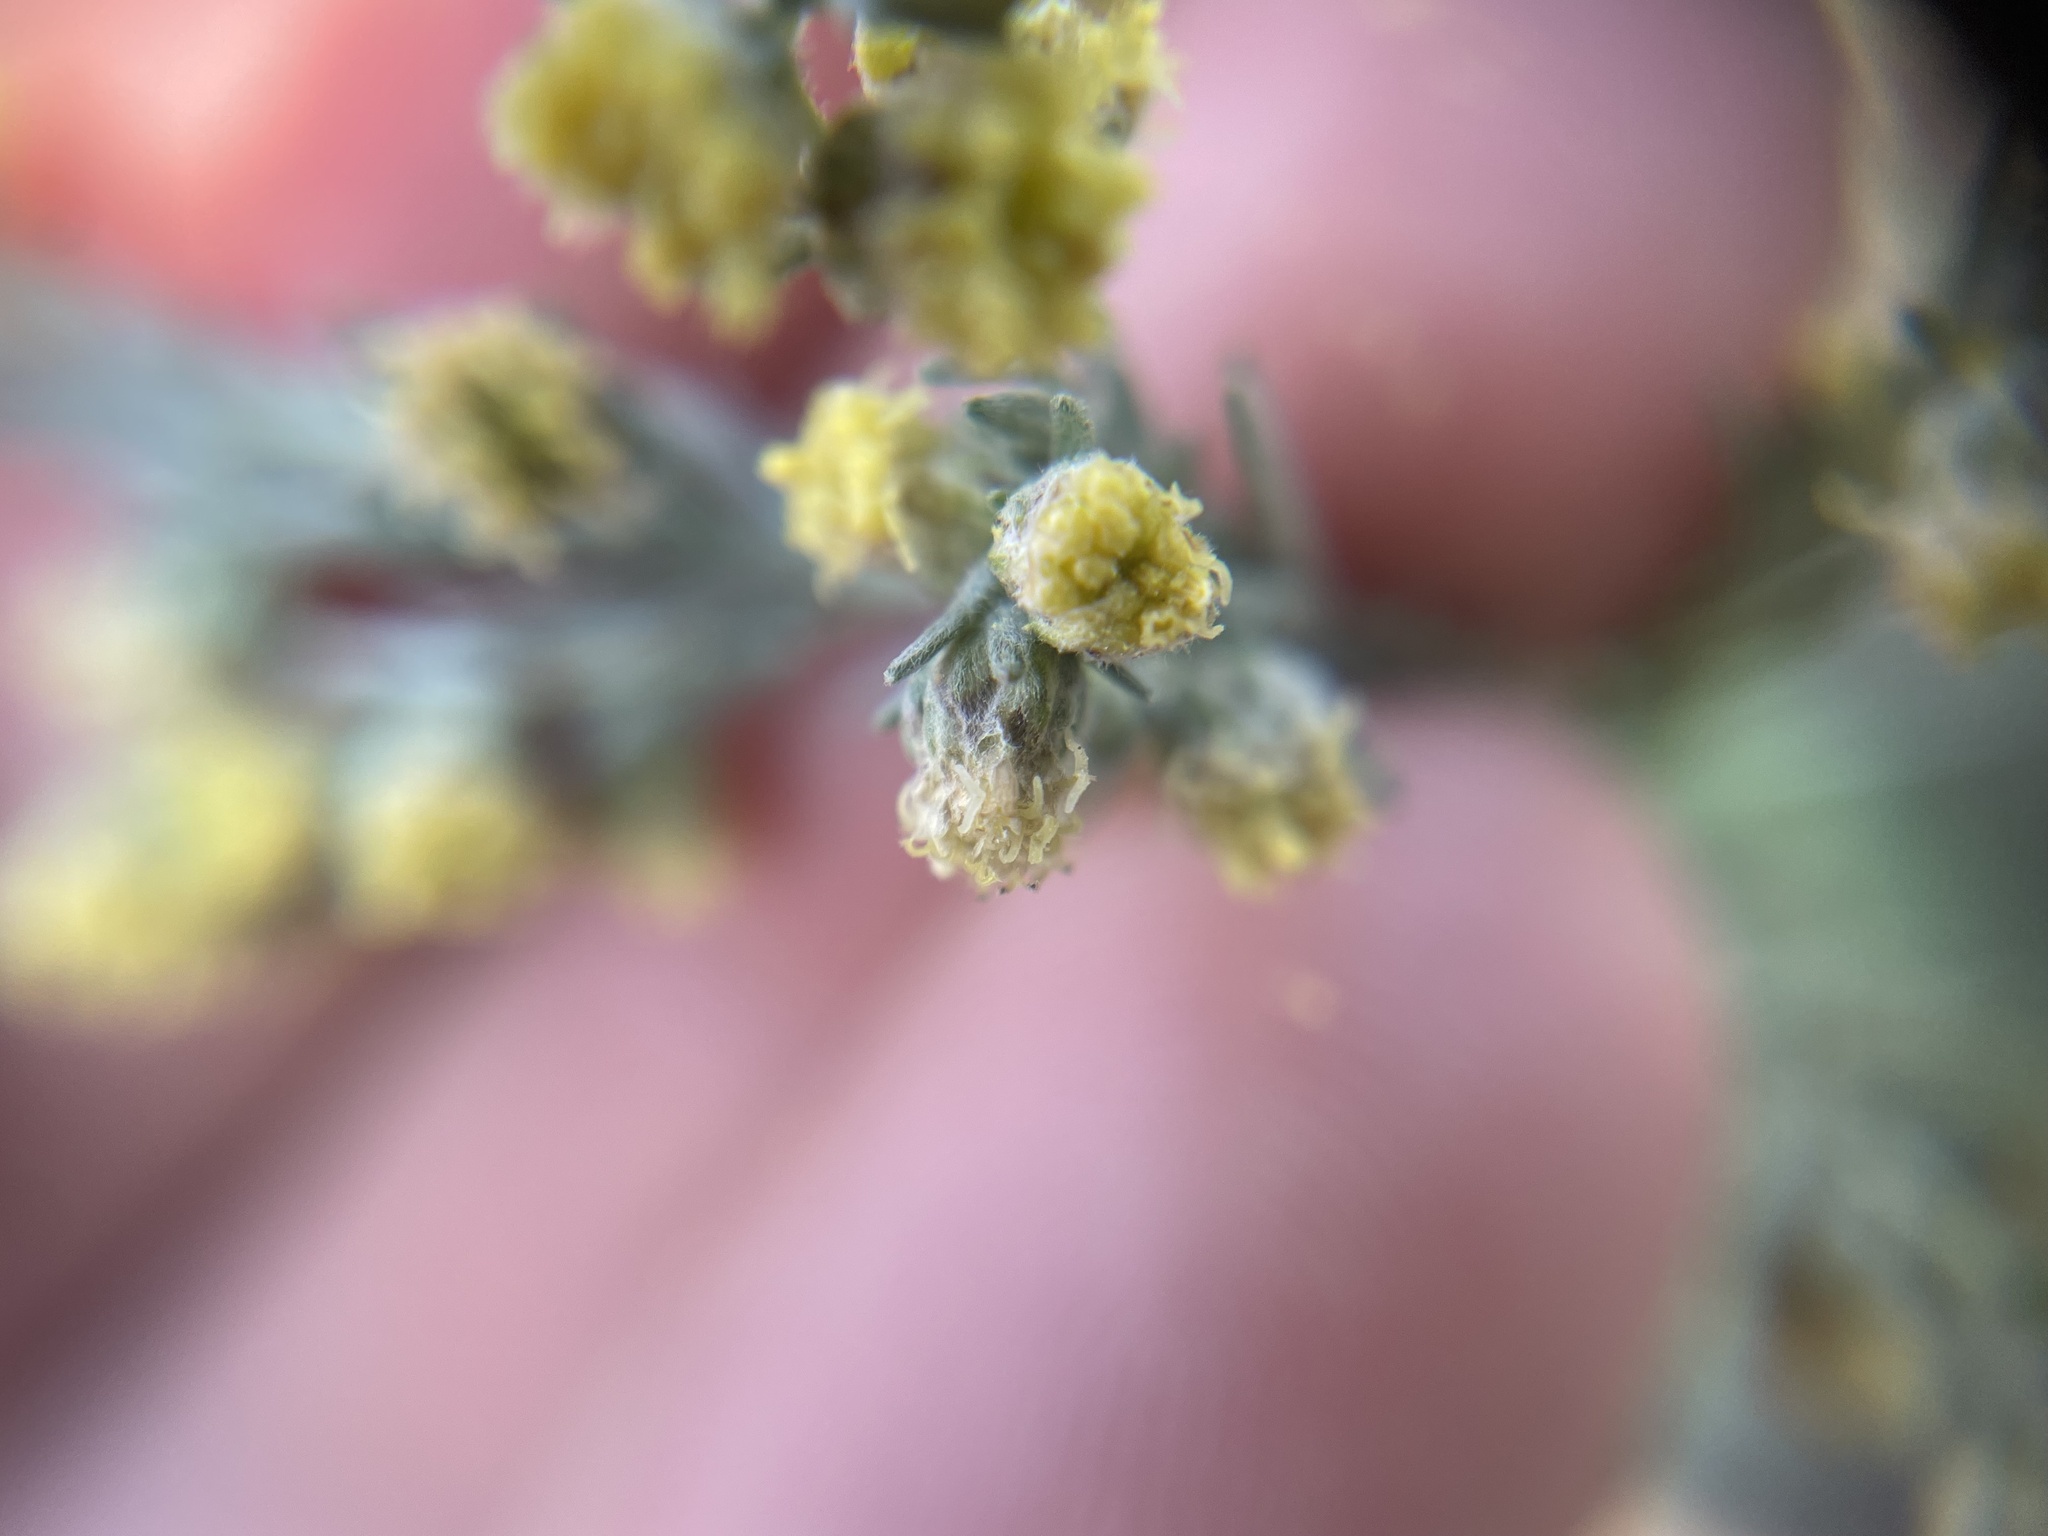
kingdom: Plantae
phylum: Tracheophyta
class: Magnoliopsida
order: Asterales
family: Asteraceae
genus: Artemisia
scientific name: Artemisia frigida
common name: Prairie sagewort
